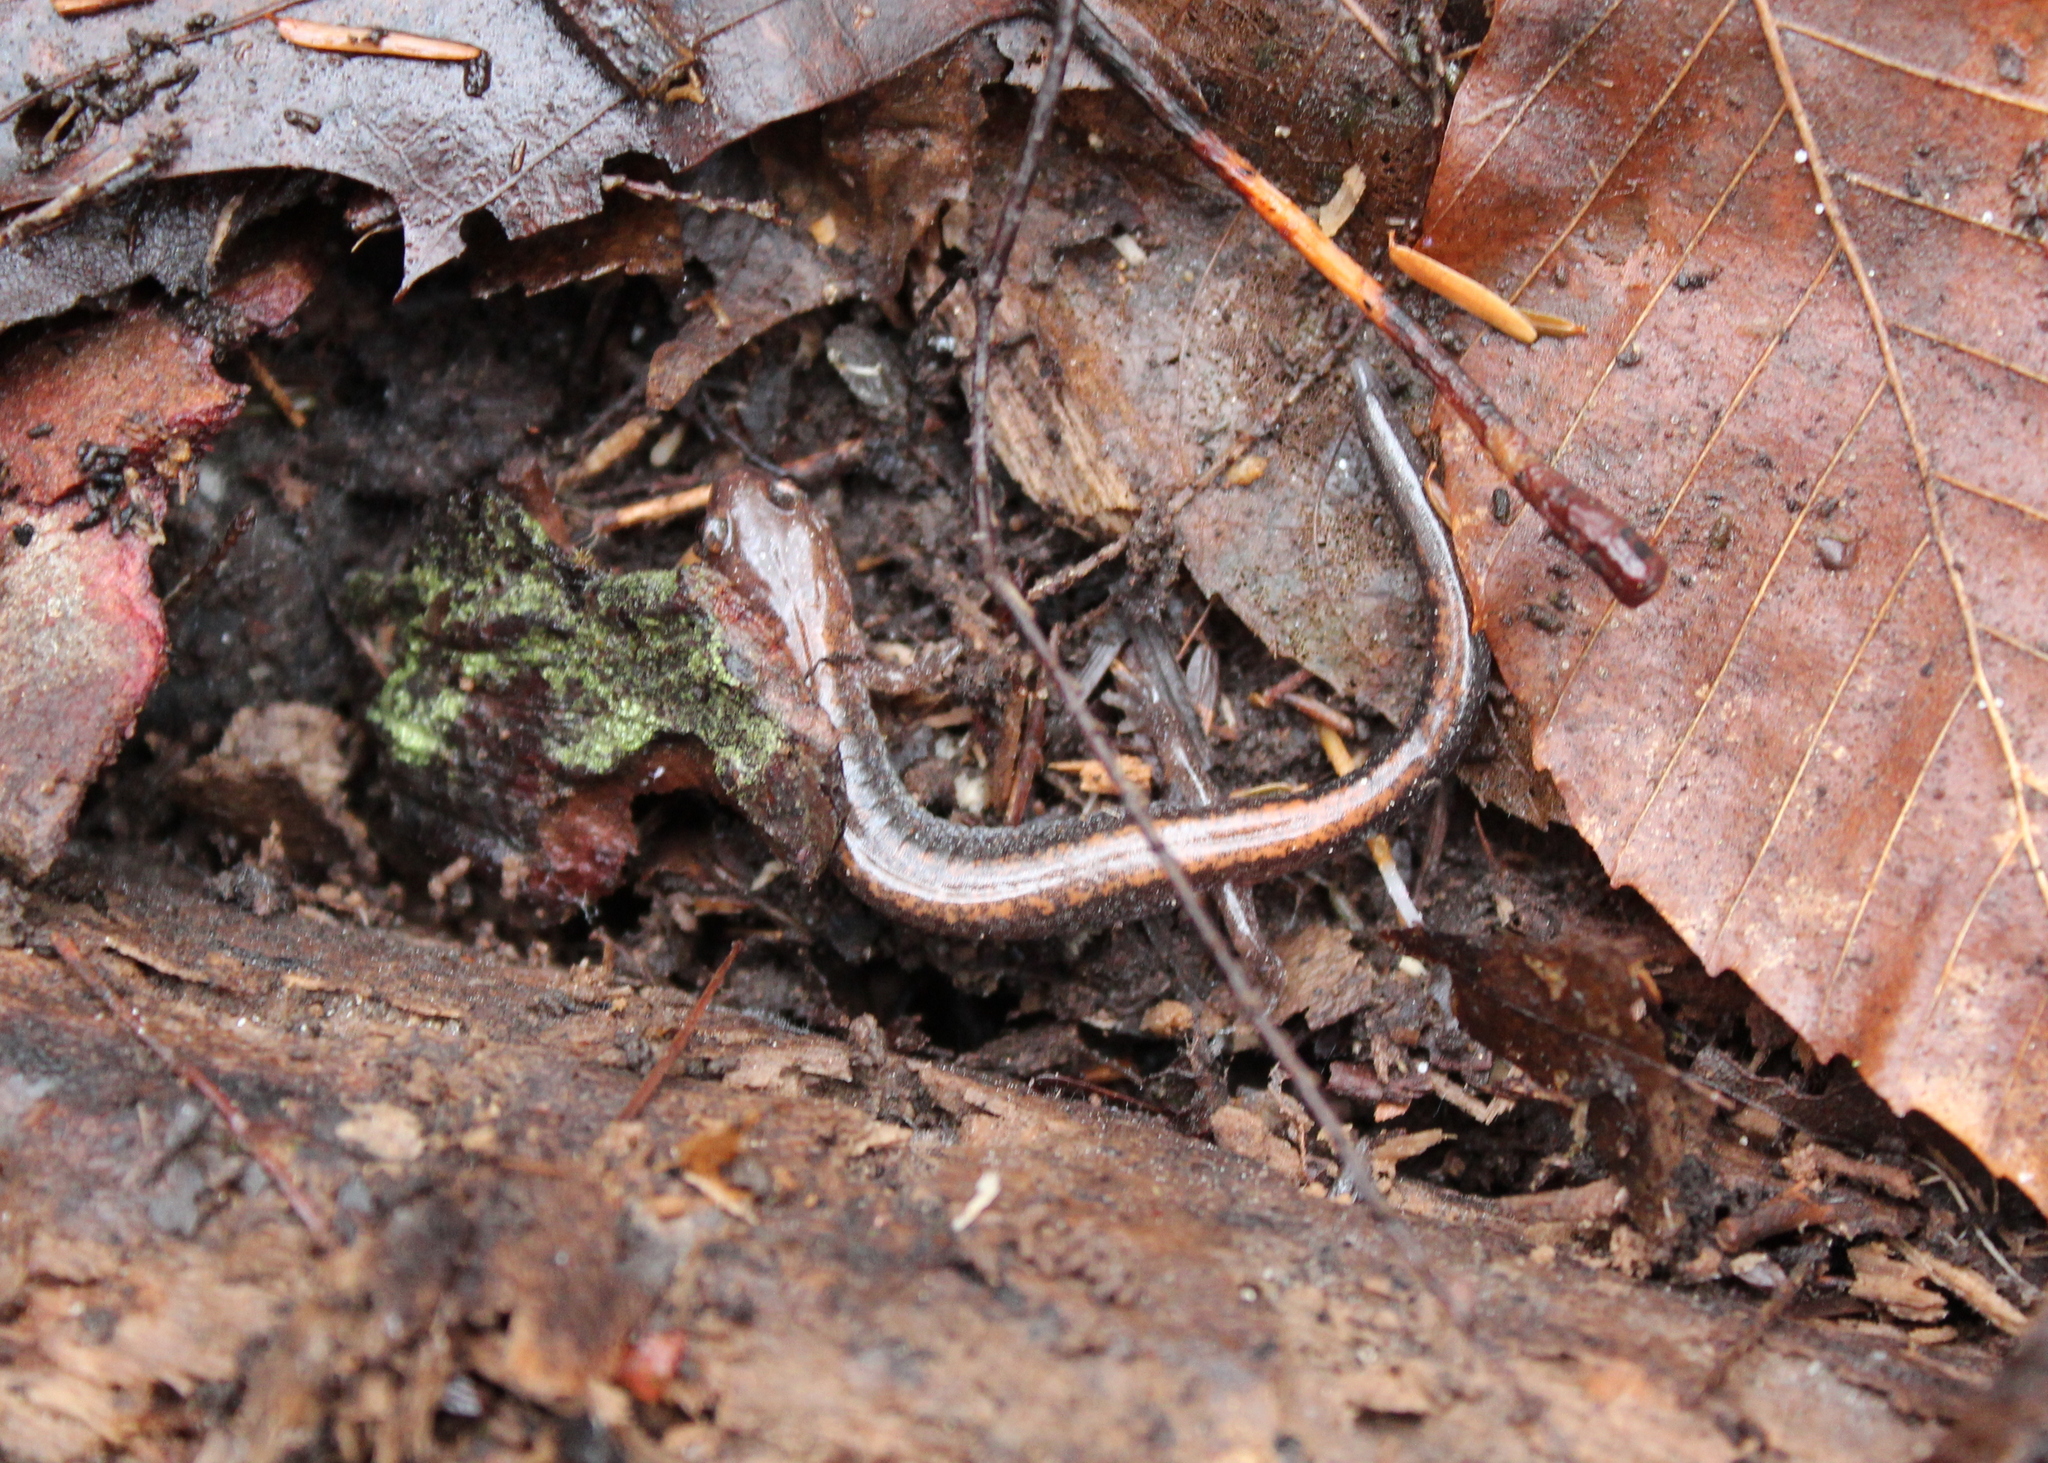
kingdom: Animalia
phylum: Chordata
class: Amphibia
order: Caudata
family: Plethodontidae
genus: Plethodon
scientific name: Plethodon cinereus
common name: Redback salamander
